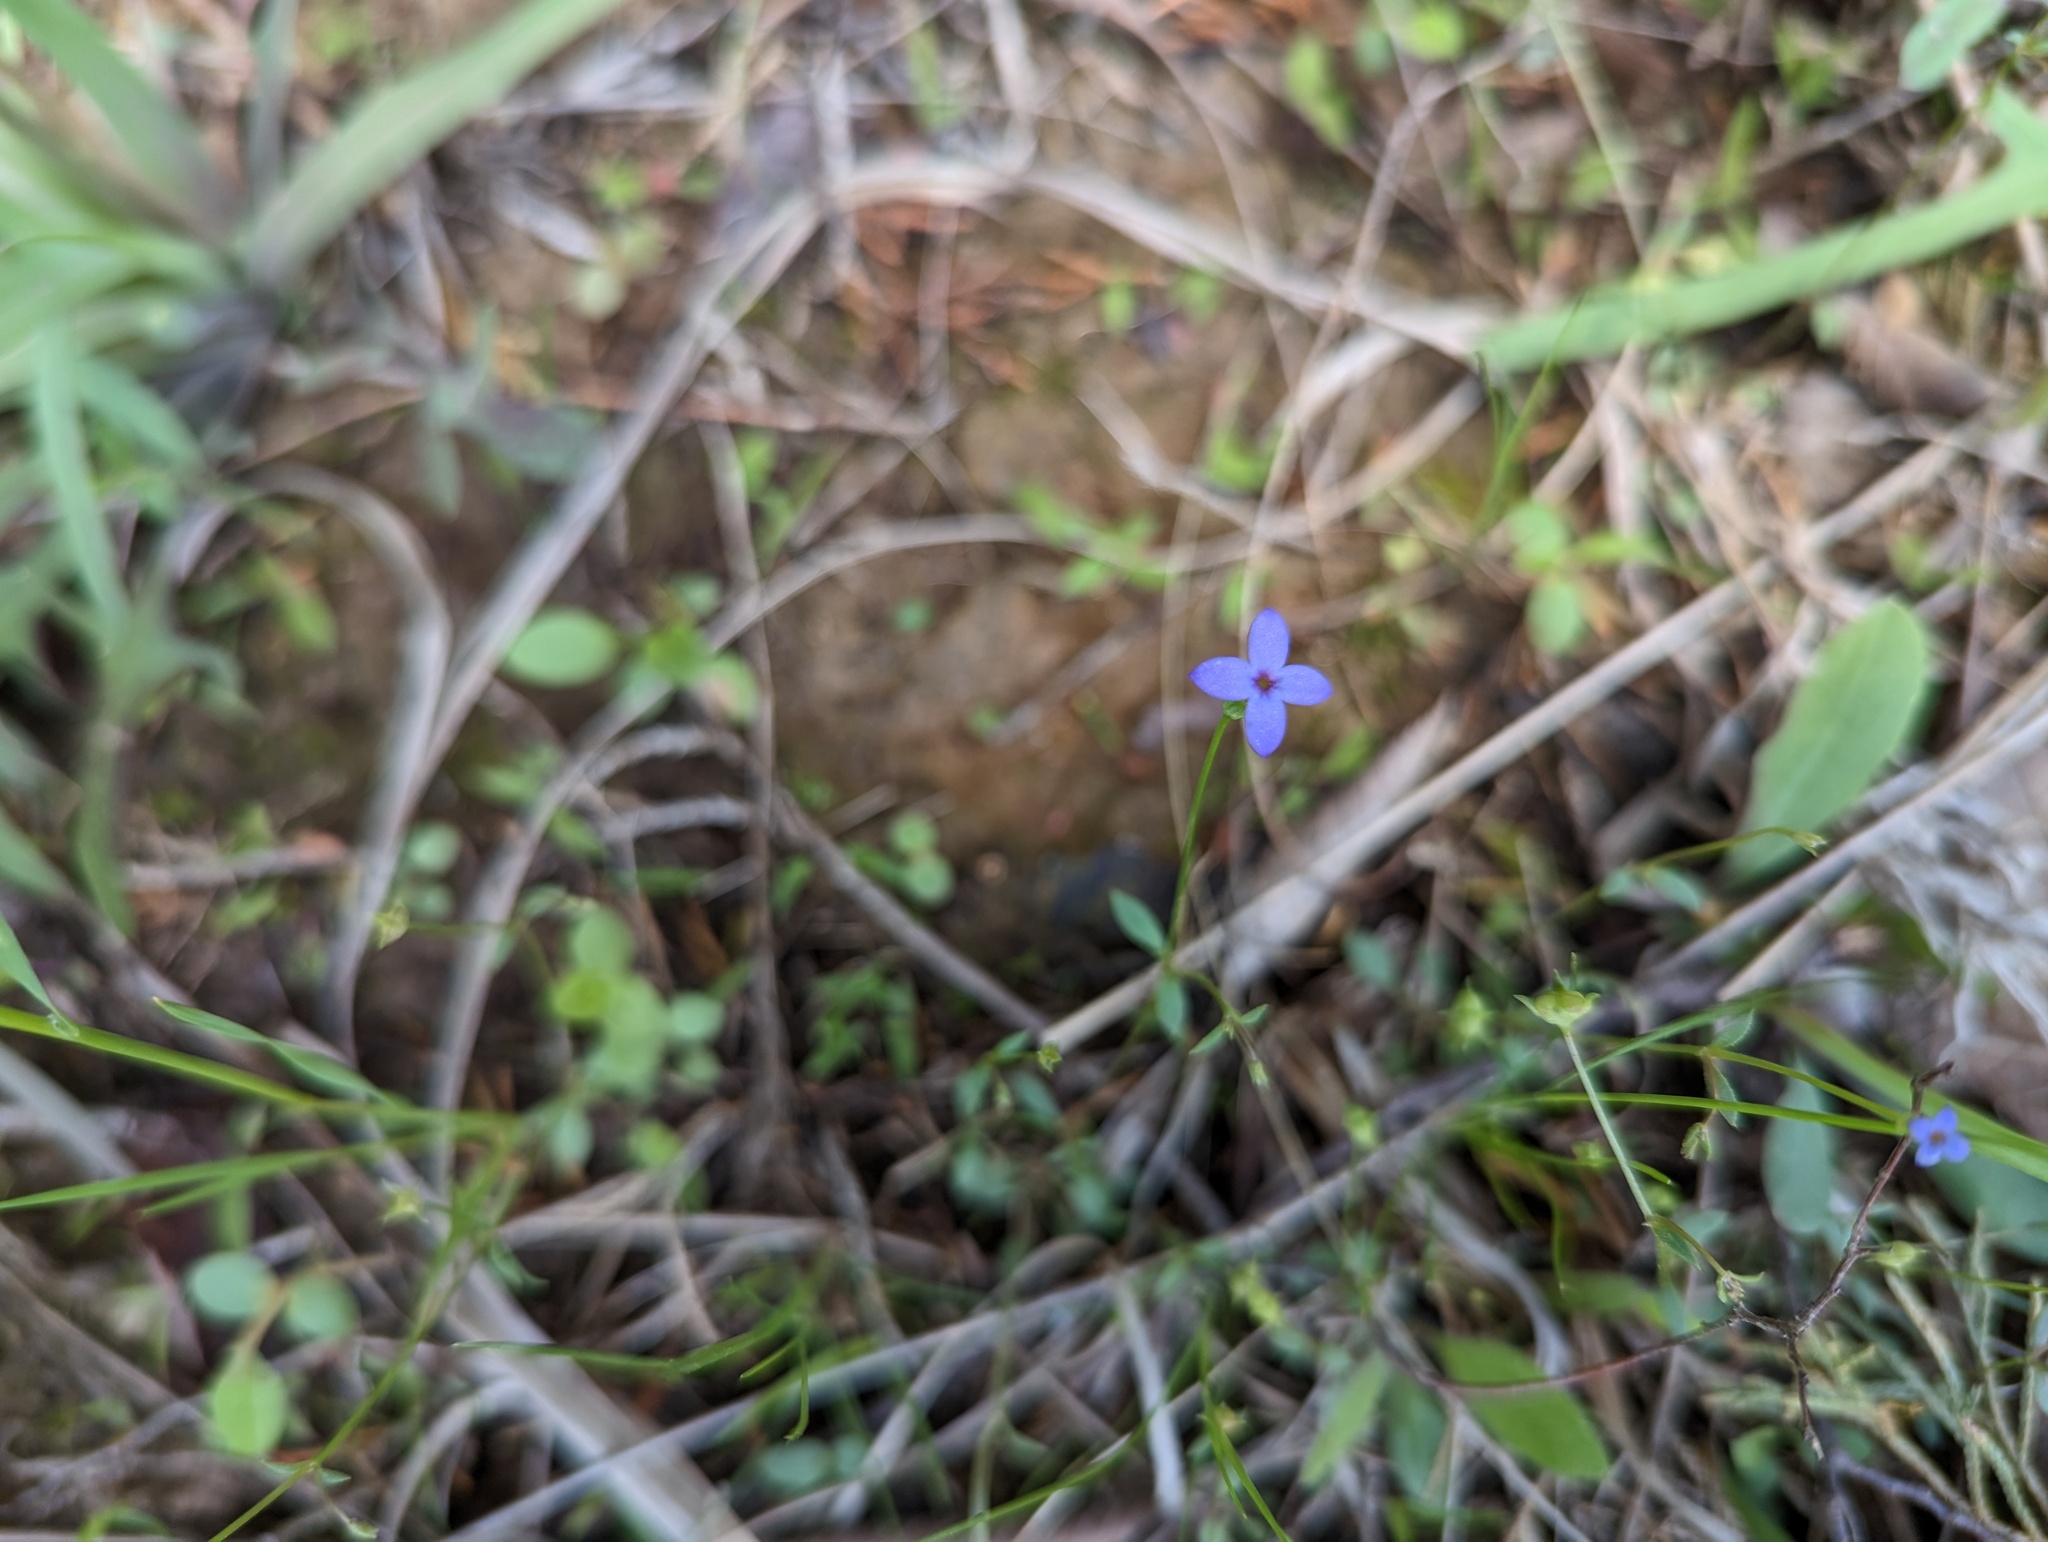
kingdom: Plantae
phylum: Tracheophyta
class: Magnoliopsida
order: Gentianales
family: Rubiaceae
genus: Houstonia
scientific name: Houstonia pusilla
